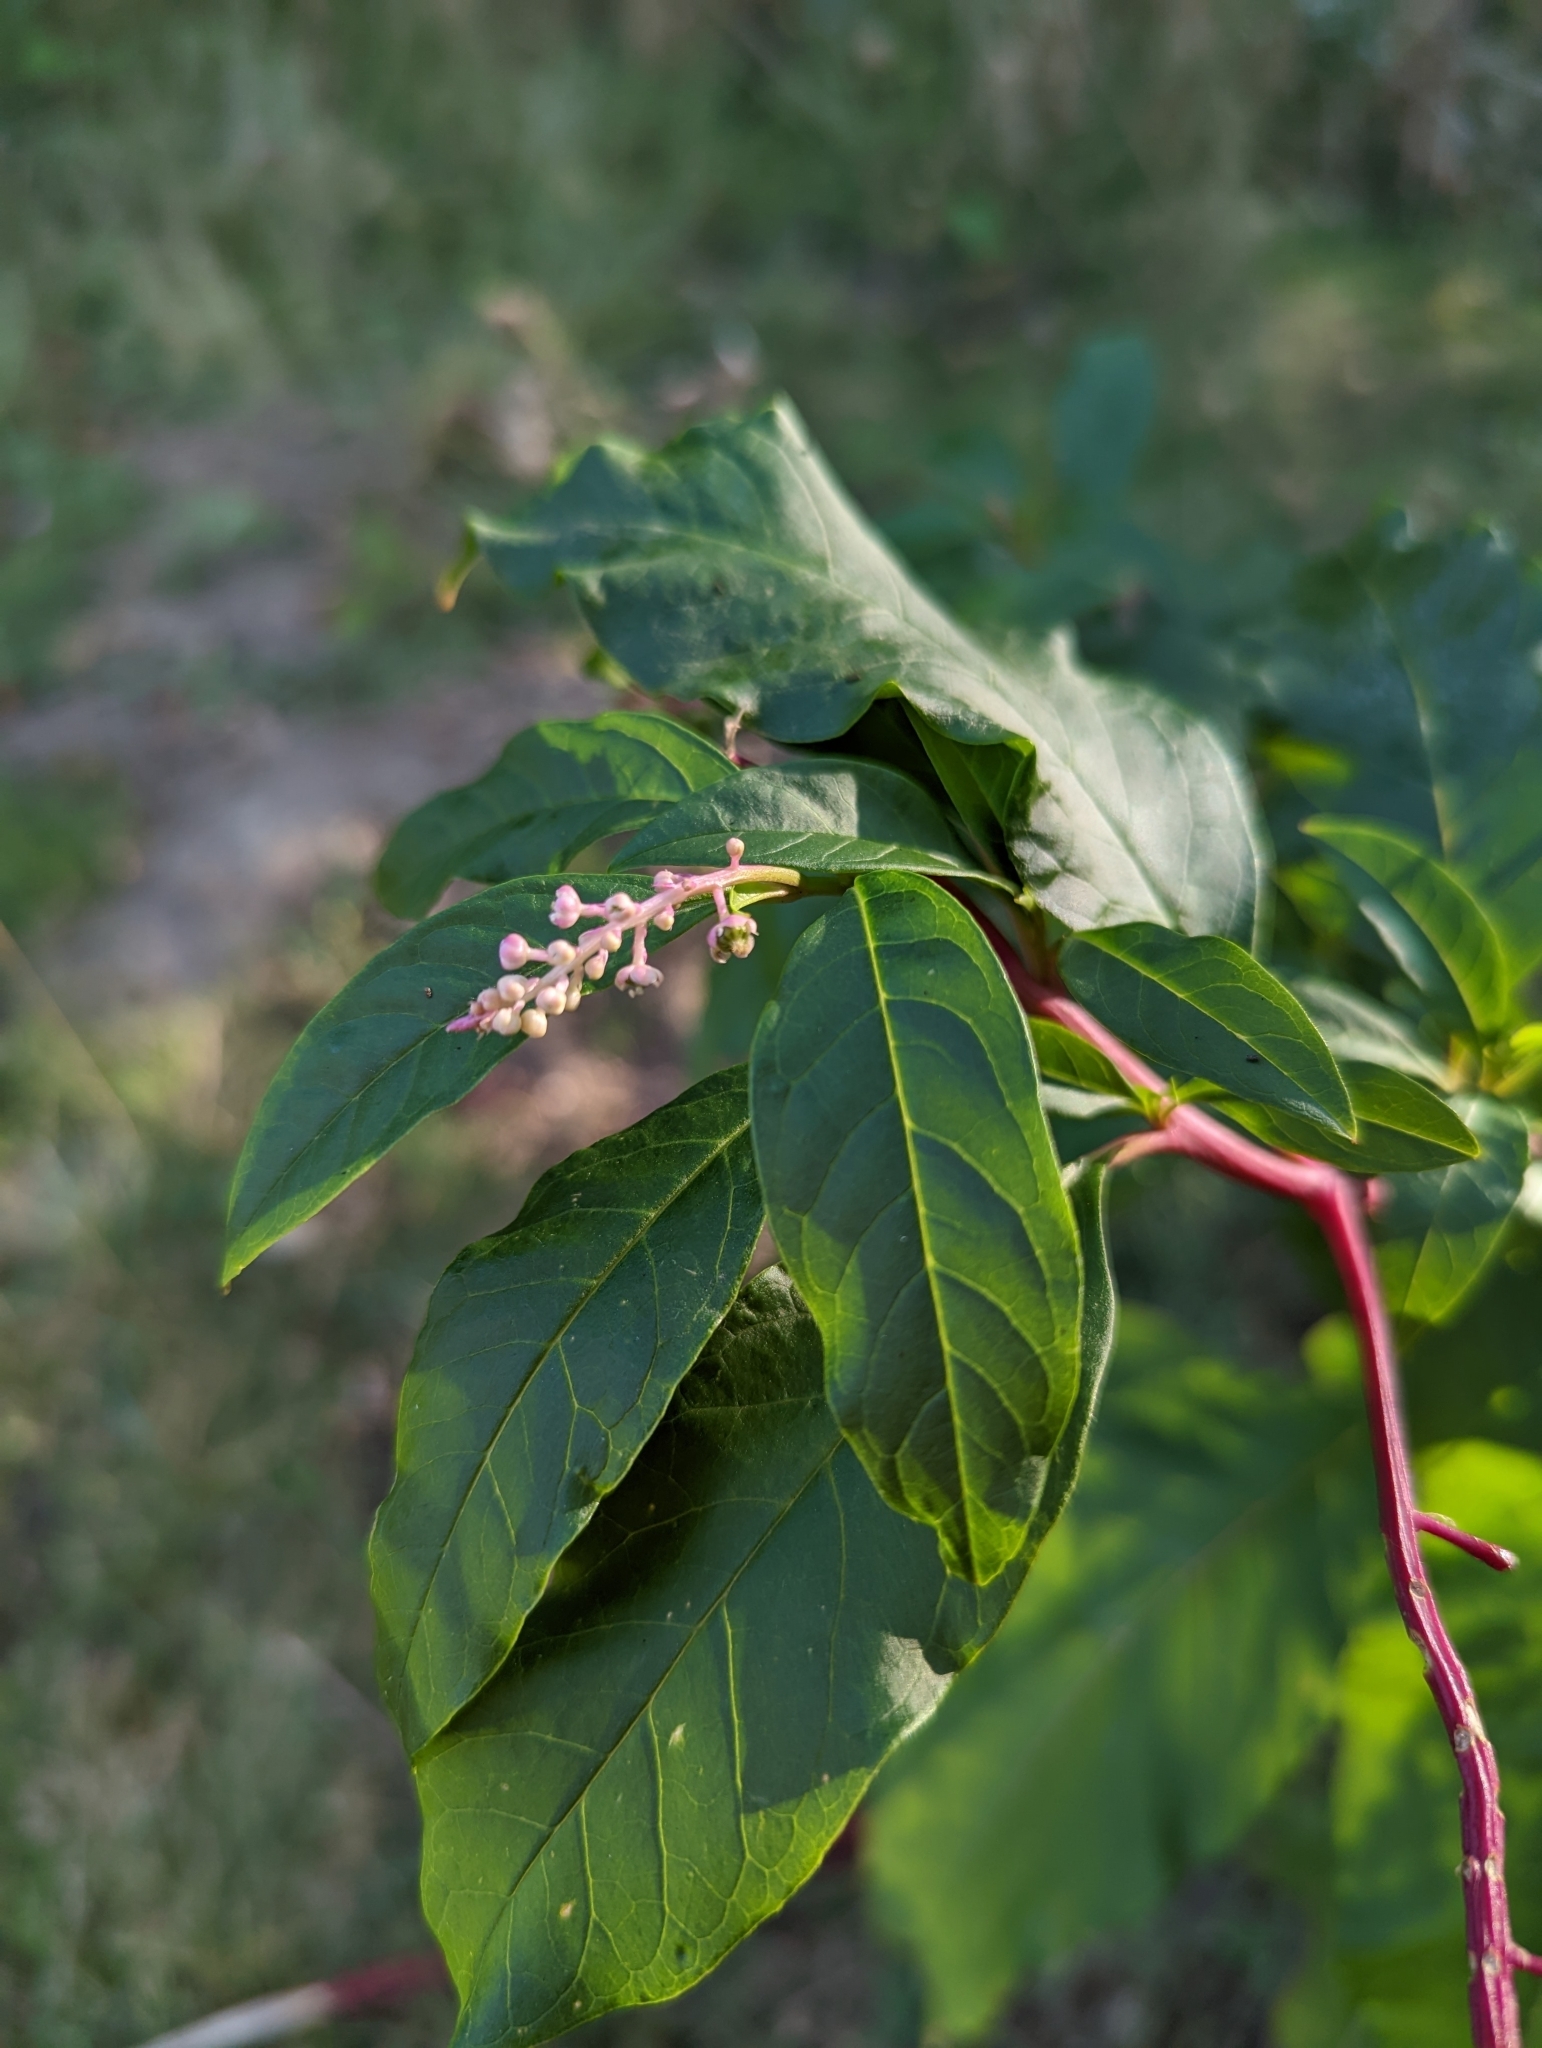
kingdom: Plantae
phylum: Tracheophyta
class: Magnoliopsida
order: Caryophyllales
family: Phytolaccaceae
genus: Phytolacca
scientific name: Phytolacca americana
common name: American pokeweed
